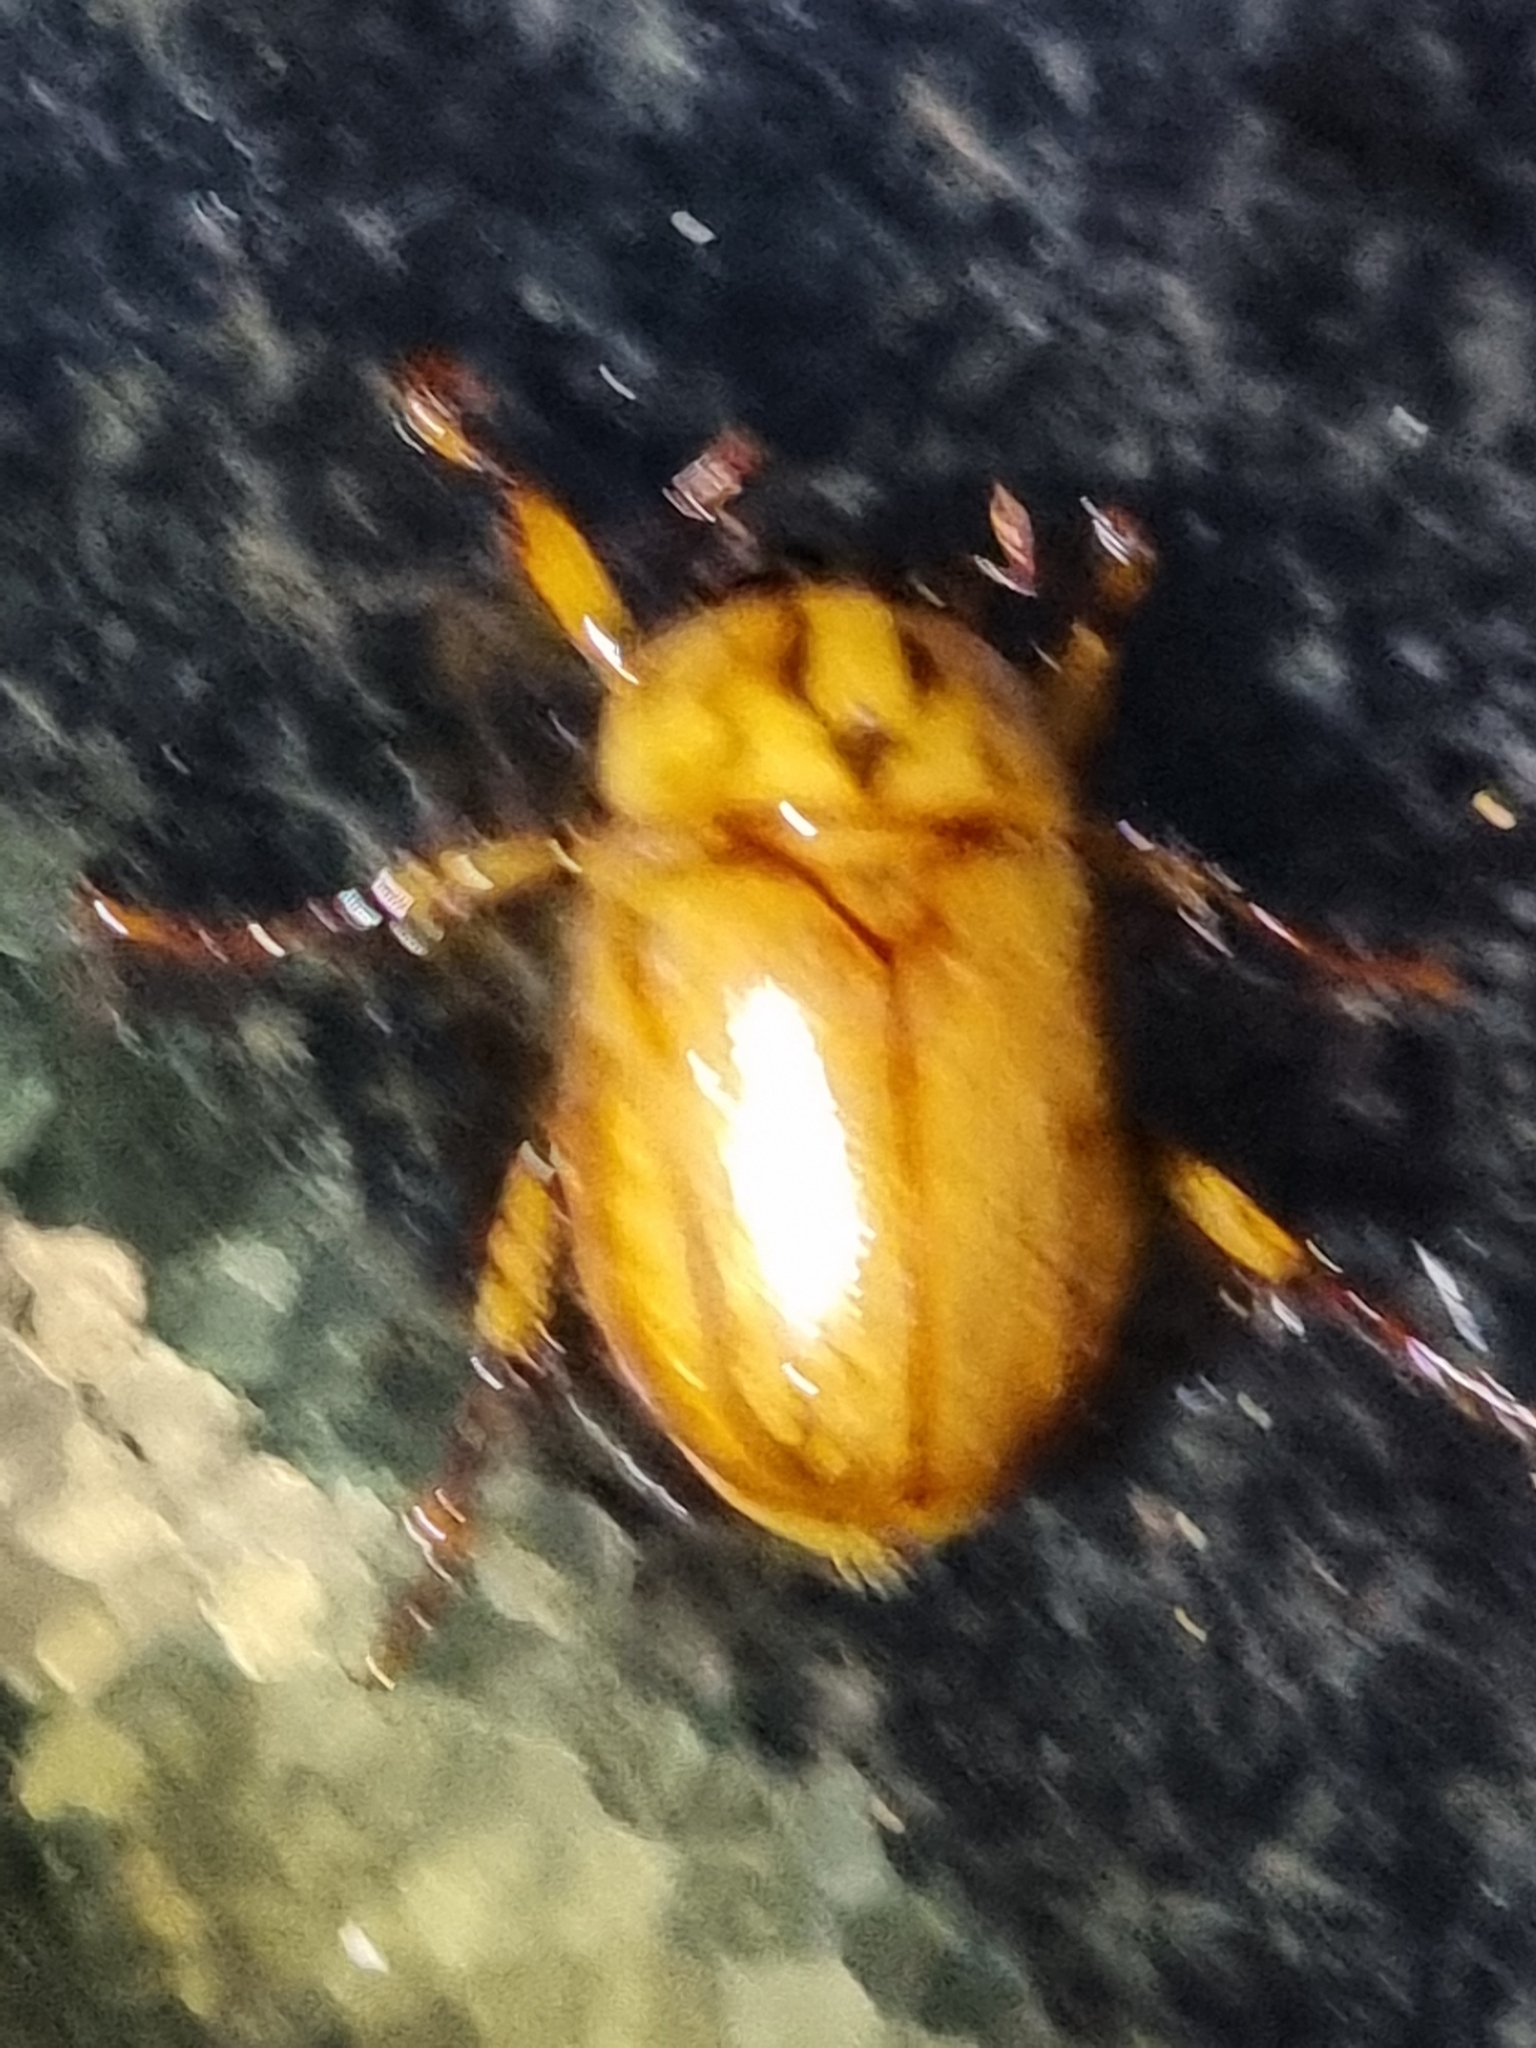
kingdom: Animalia
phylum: Arthropoda
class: Insecta
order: Coleoptera
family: Scarabaeidae
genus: Cyclocephala
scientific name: Cyclocephala signaticollis
